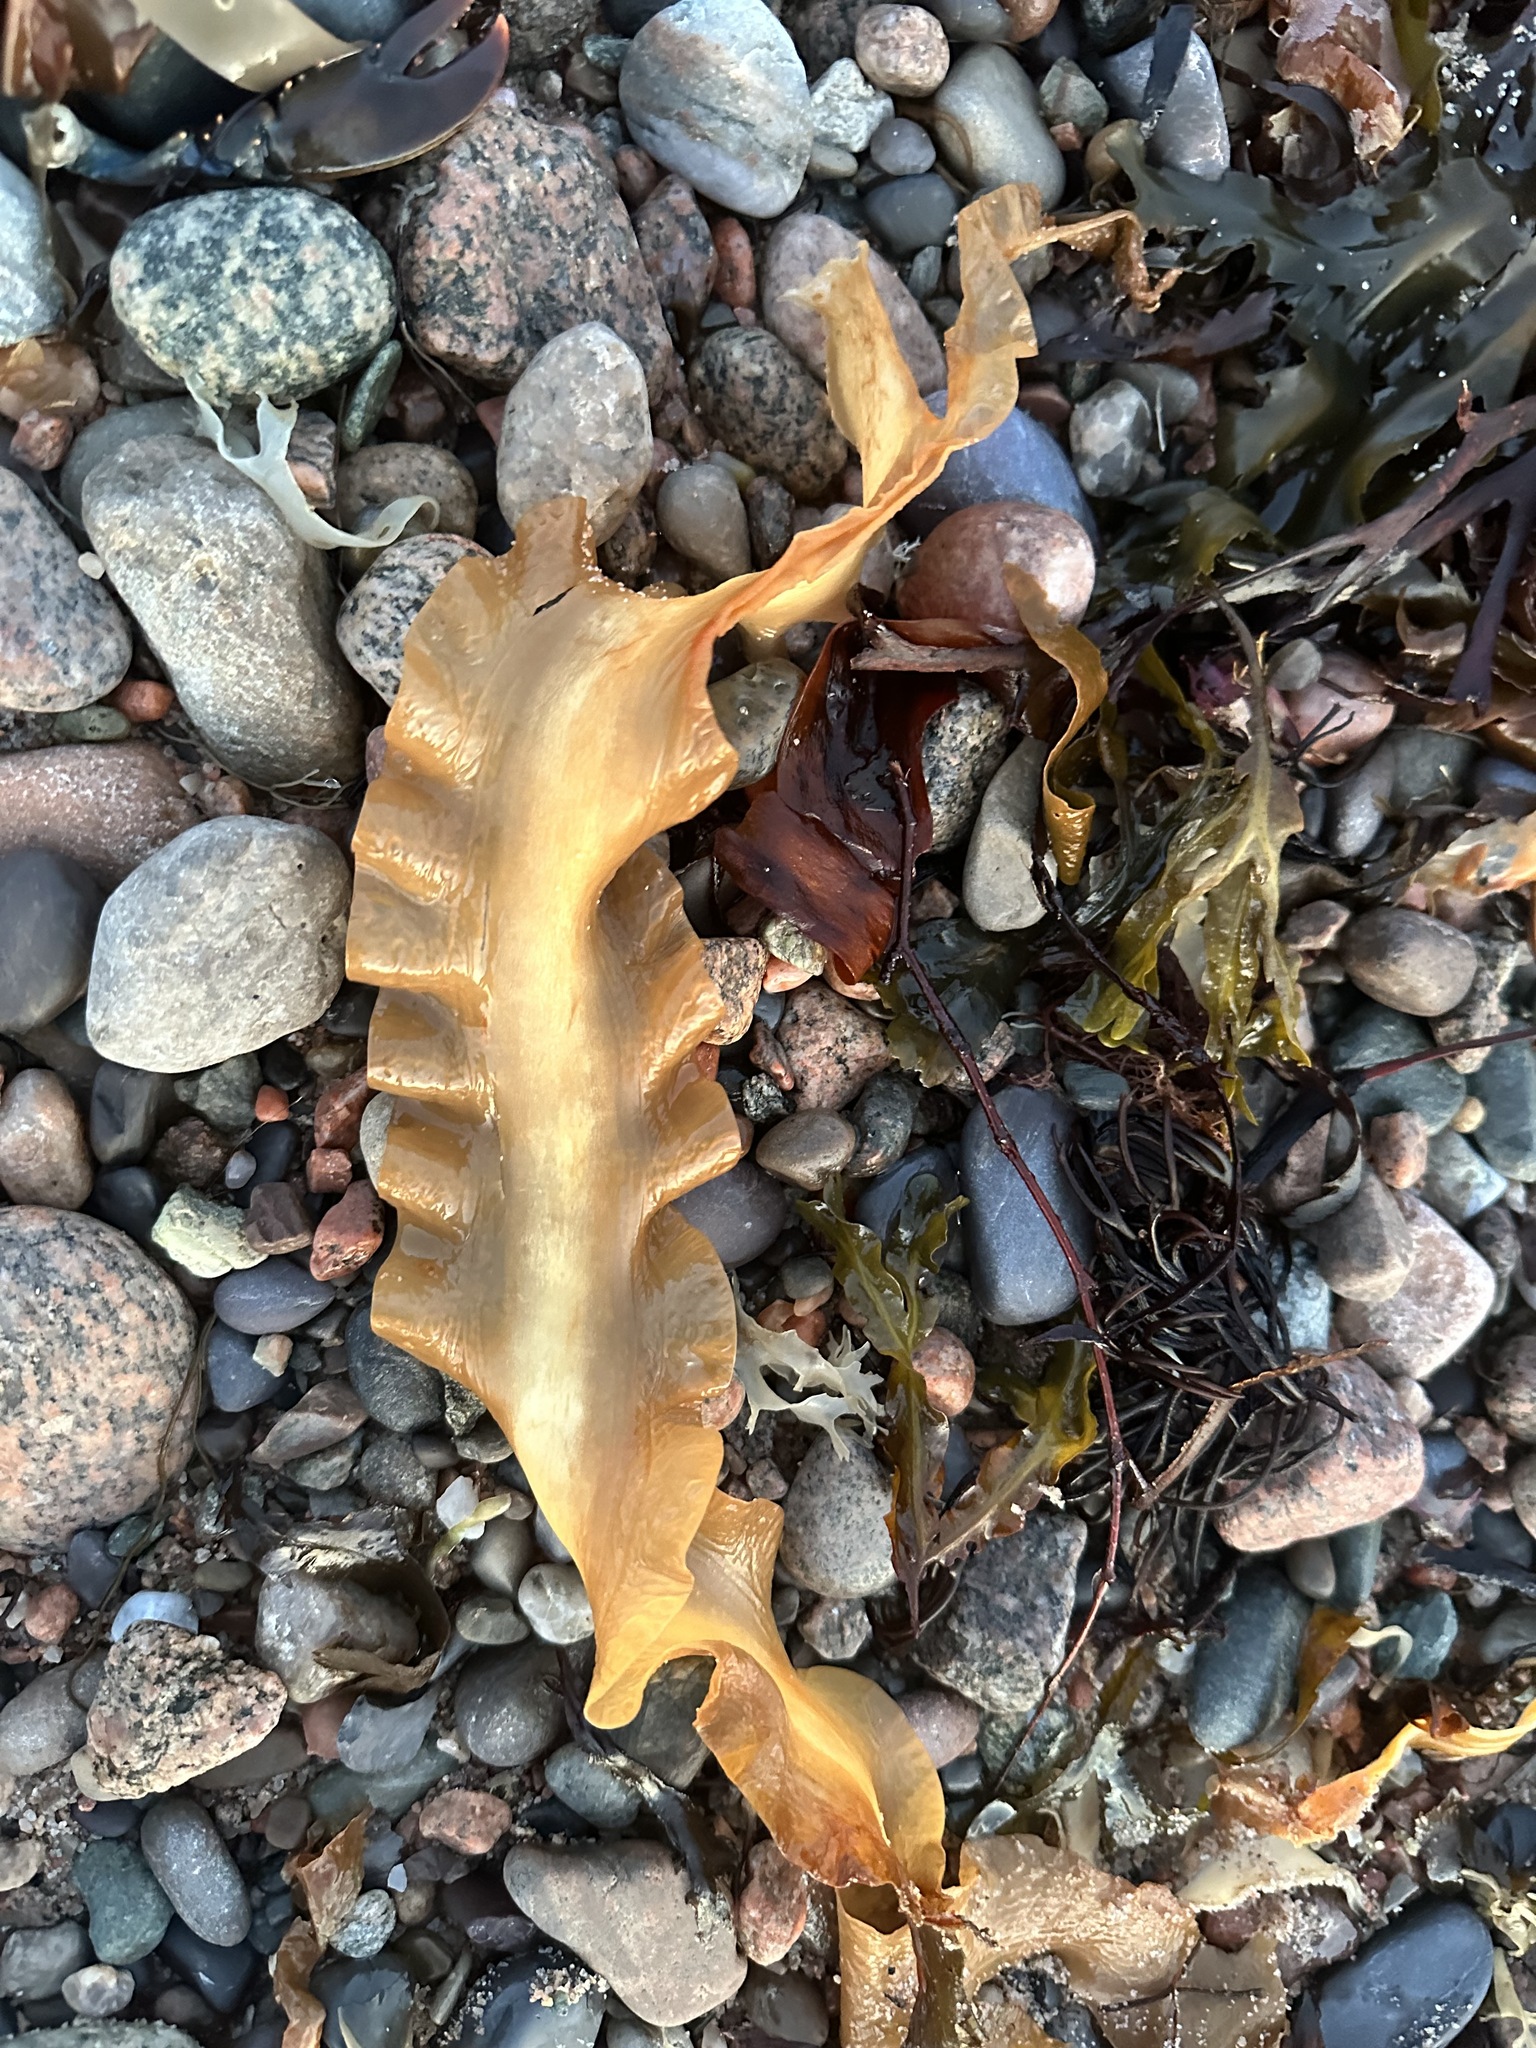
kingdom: Chromista
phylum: Ochrophyta
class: Phaeophyceae
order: Laminariales
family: Laminariaceae
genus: Saccharina
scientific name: Saccharina latissima
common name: Poor man's weather glass
